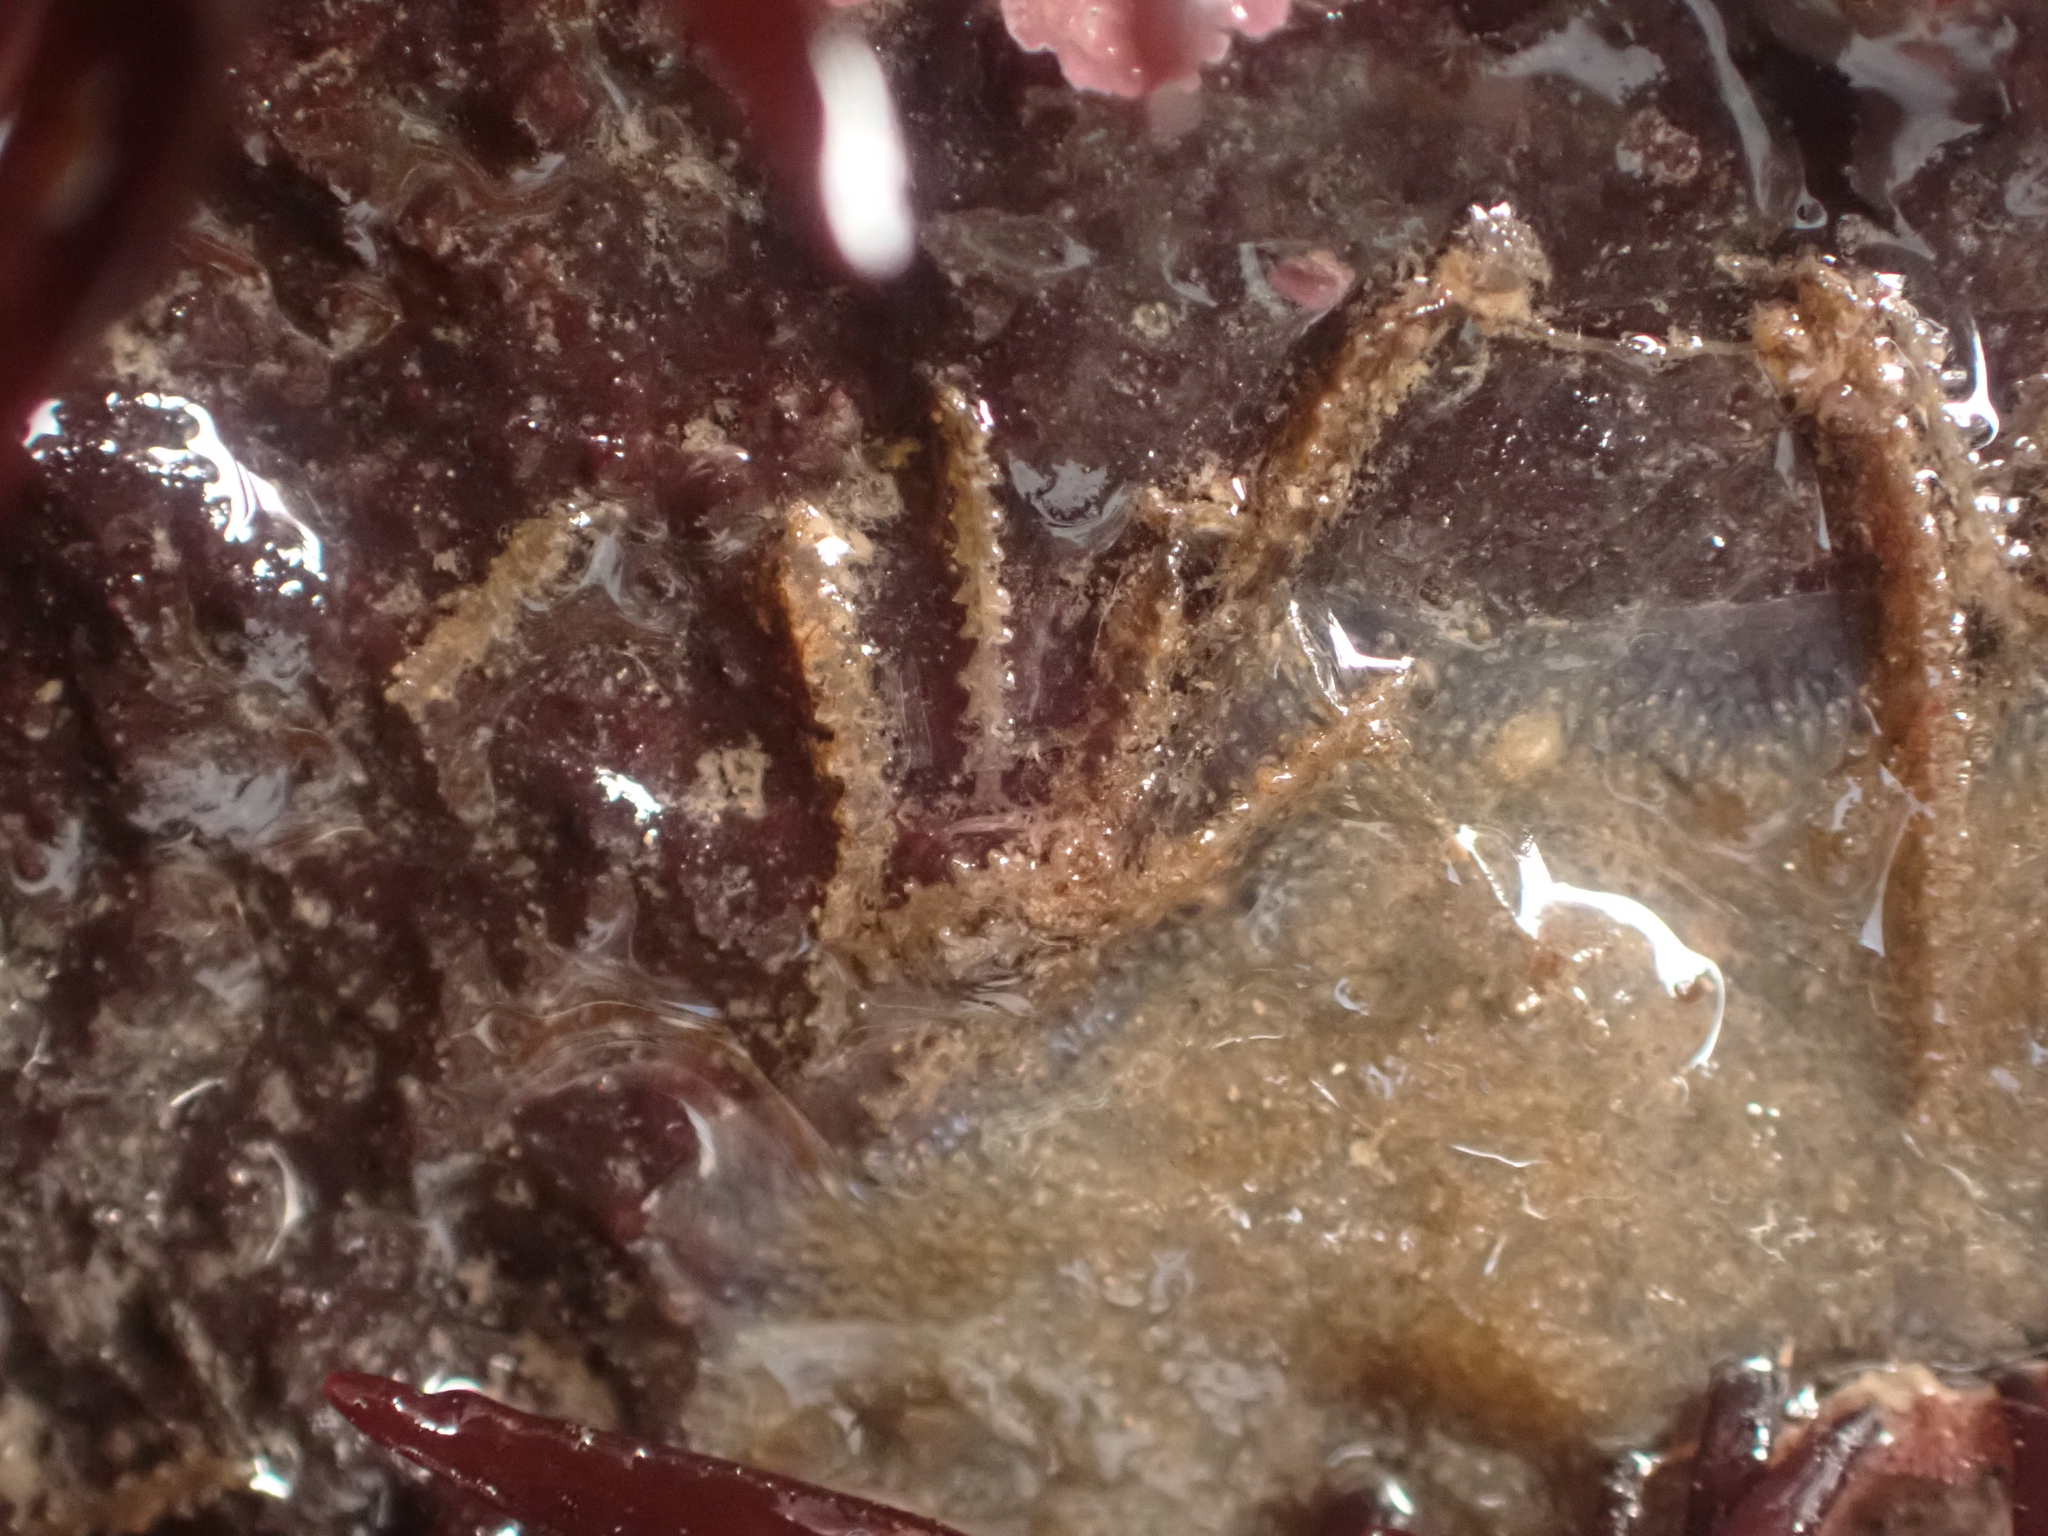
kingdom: Animalia
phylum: Cnidaria
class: Hydrozoa
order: Leptothecata
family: Sertulariidae
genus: Dynamena
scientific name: Dynamena pumila
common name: Sea oak
